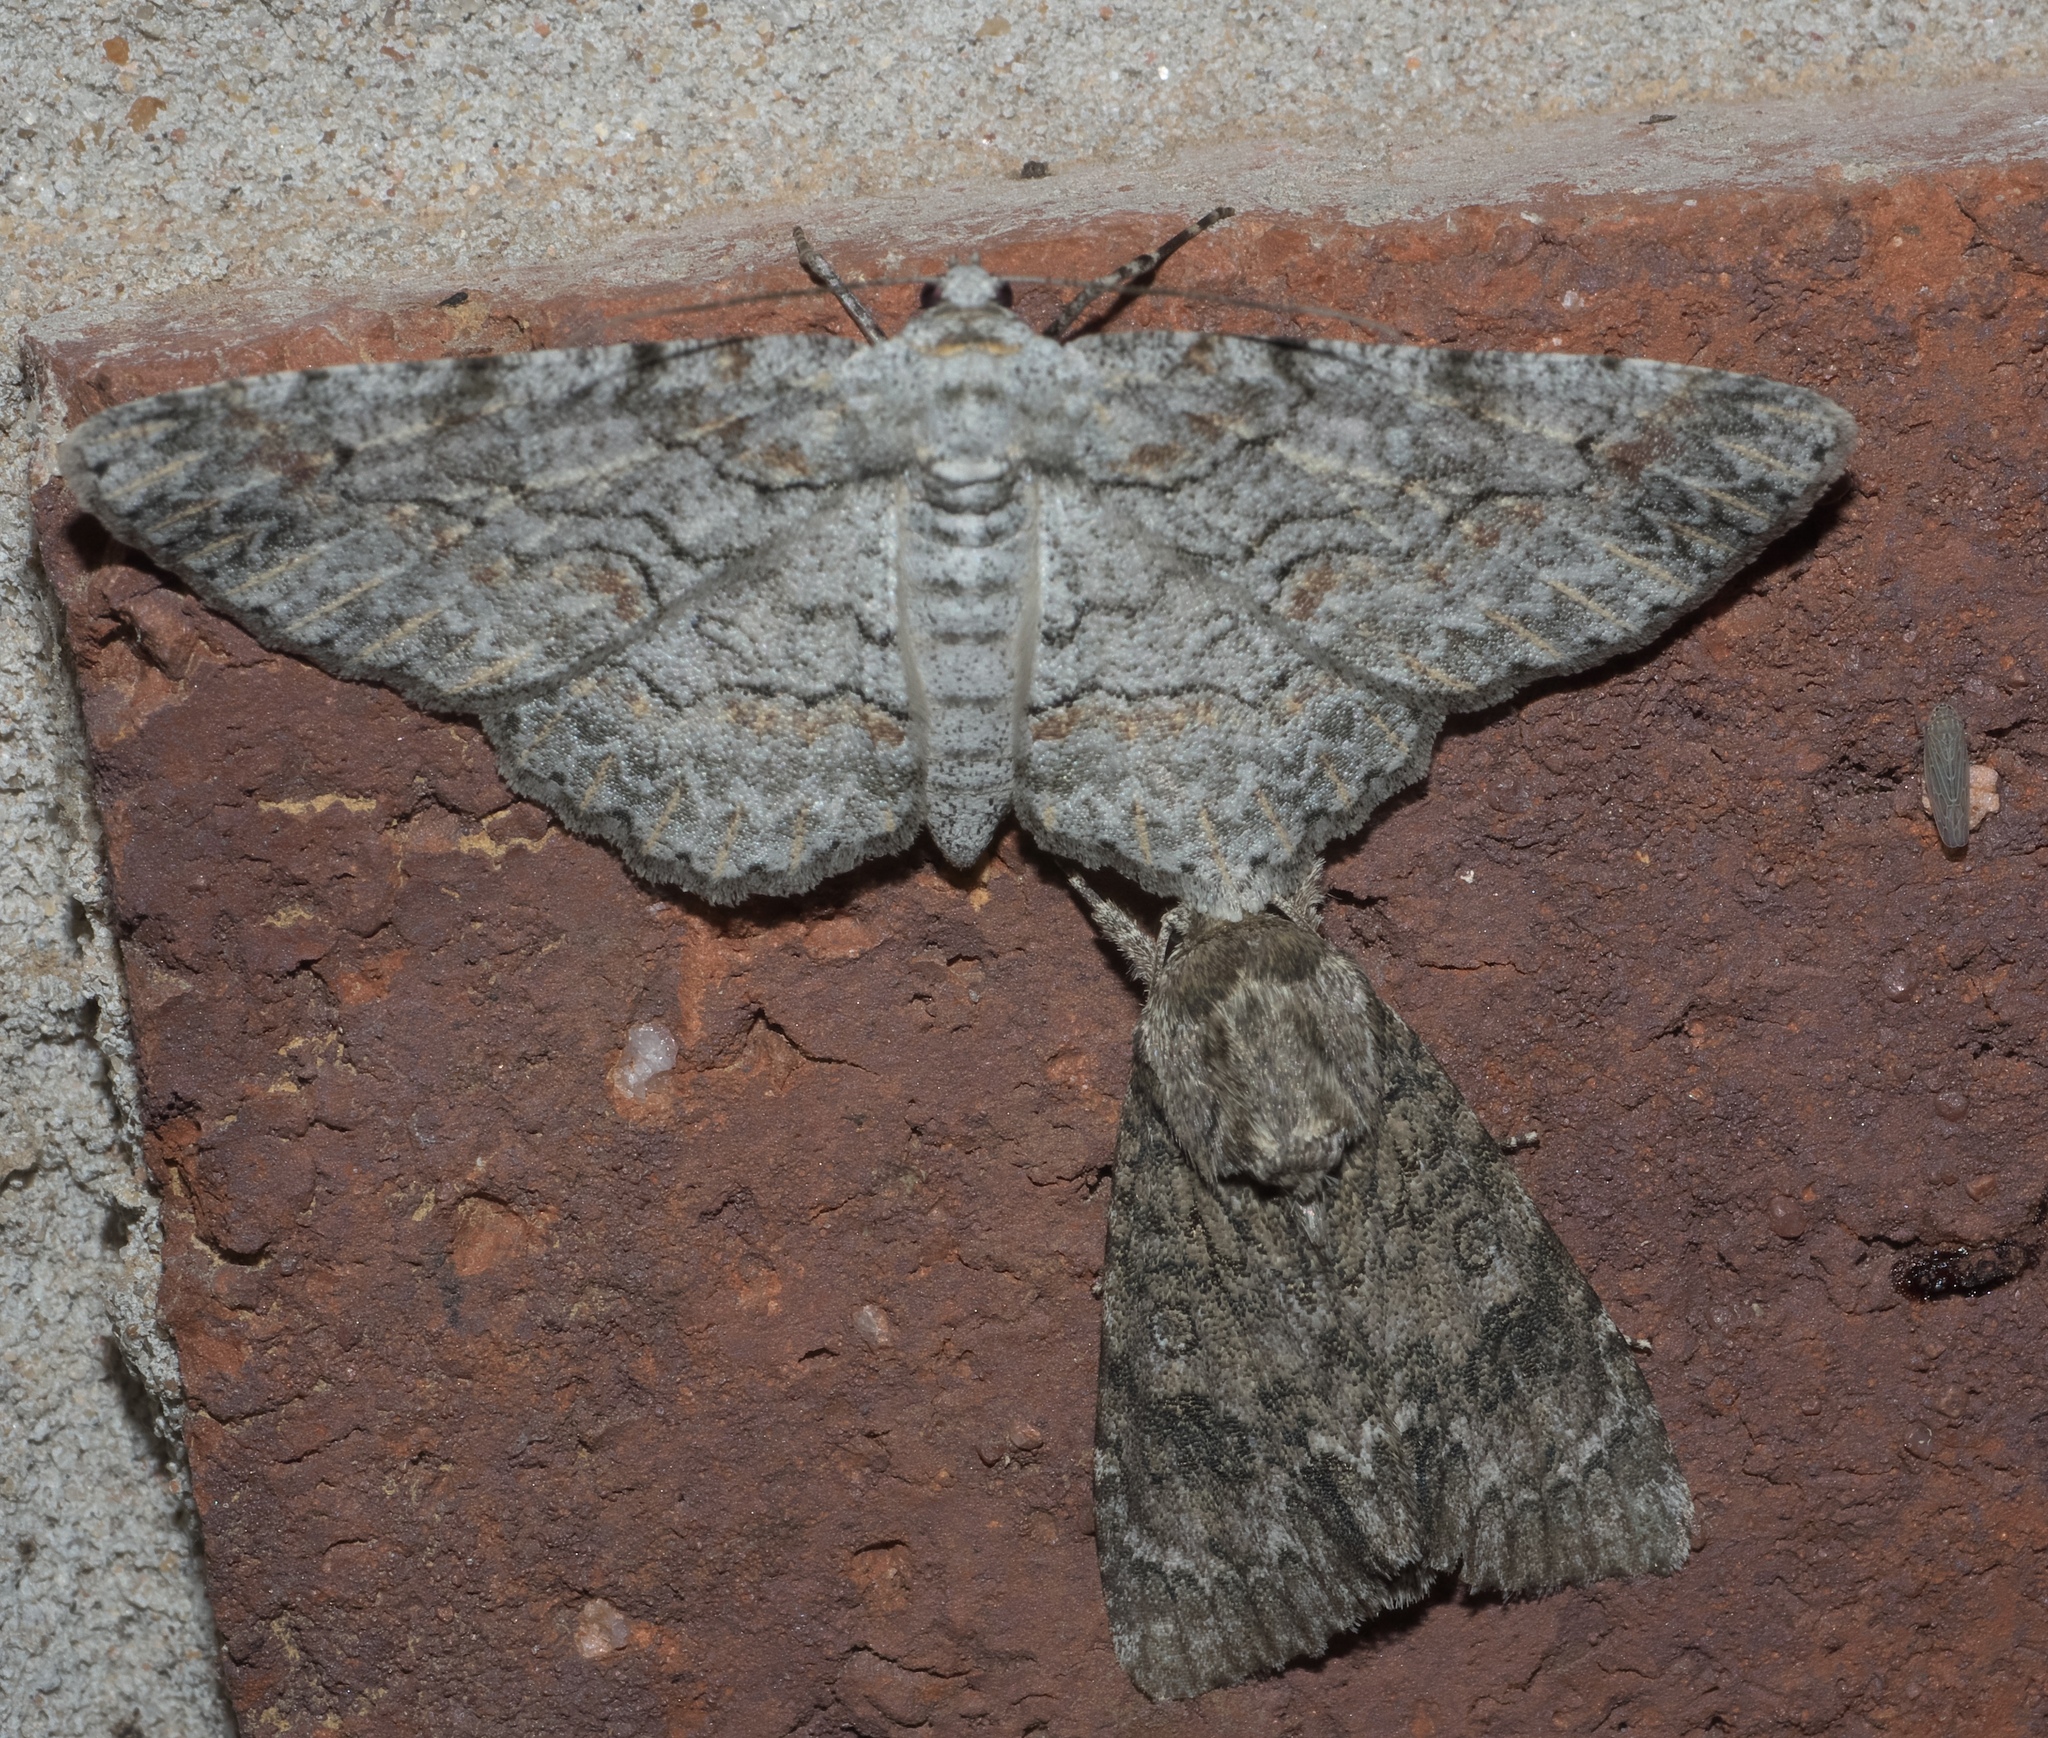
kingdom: Animalia
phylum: Arthropoda
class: Insecta
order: Lepidoptera
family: Geometridae
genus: Iridopsis
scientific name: Iridopsis defectaria
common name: Brown-shaded gray
